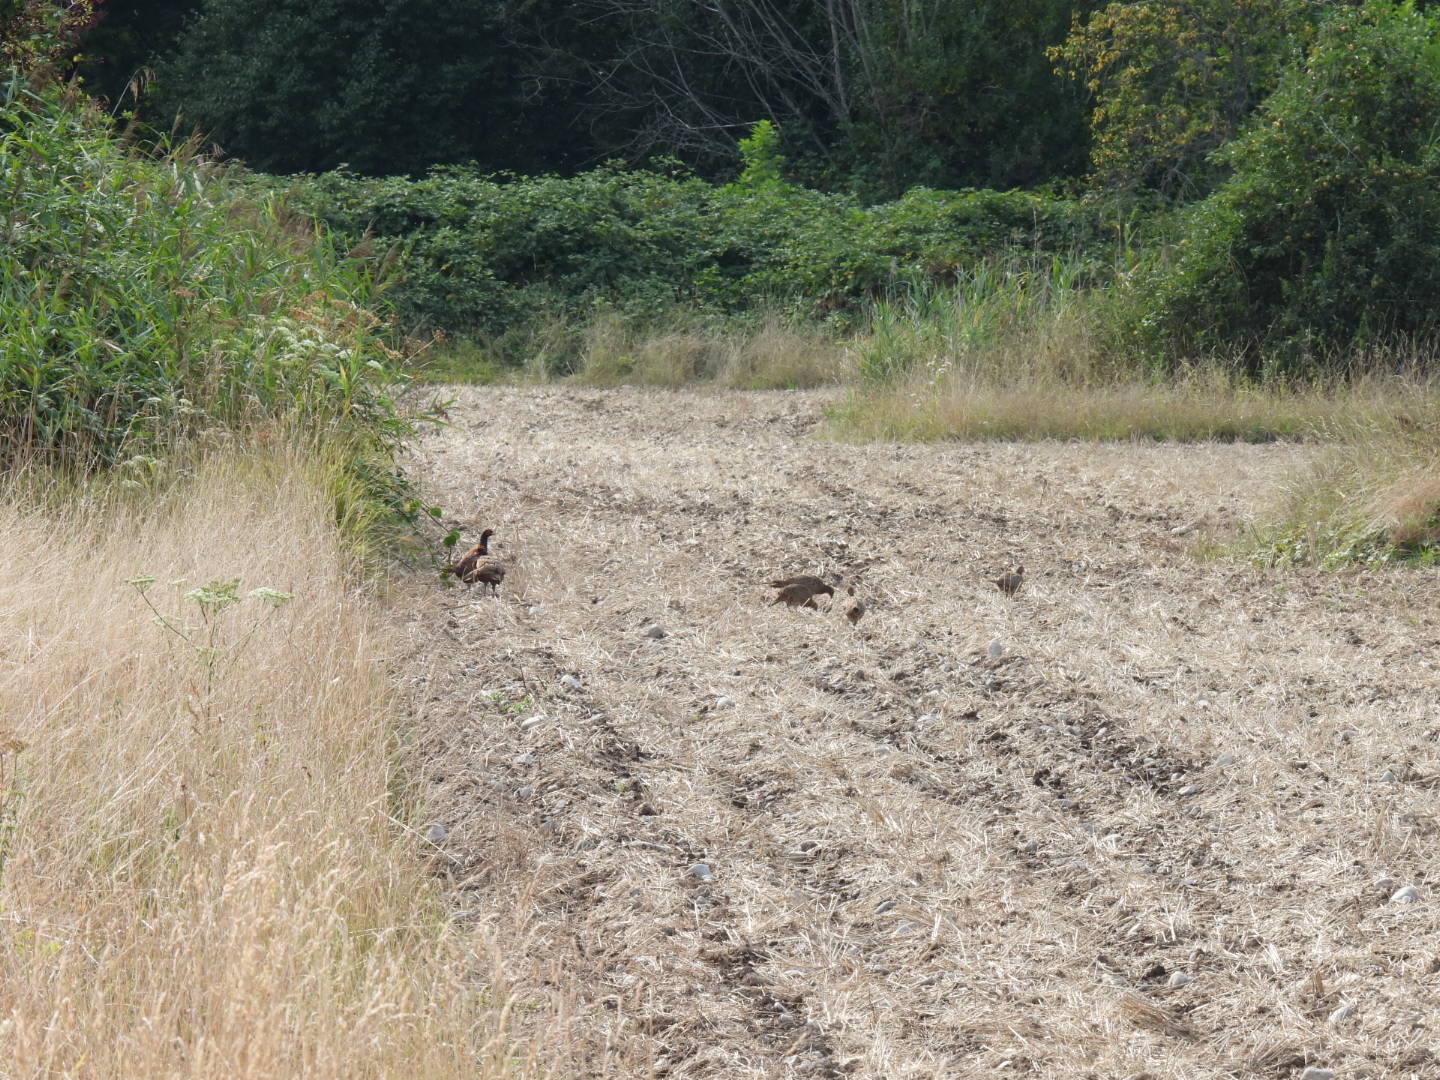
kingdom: Animalia
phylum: Chordata
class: Aves
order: Galliformes
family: Phasianidae
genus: Phasianus
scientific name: Phasianus colchicus
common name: Common pheasant
